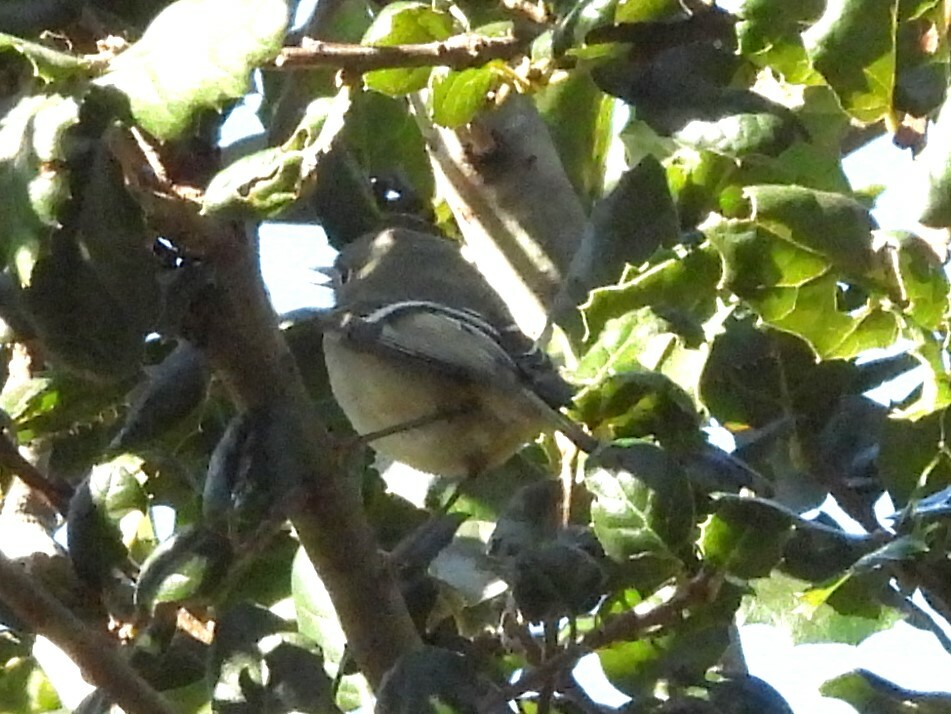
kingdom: Animalia
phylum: Chordata
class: Aves
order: Passeriformes
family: Regulidae
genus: Regulus
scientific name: Regulus calendula
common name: Ruby-crowned kinglet
